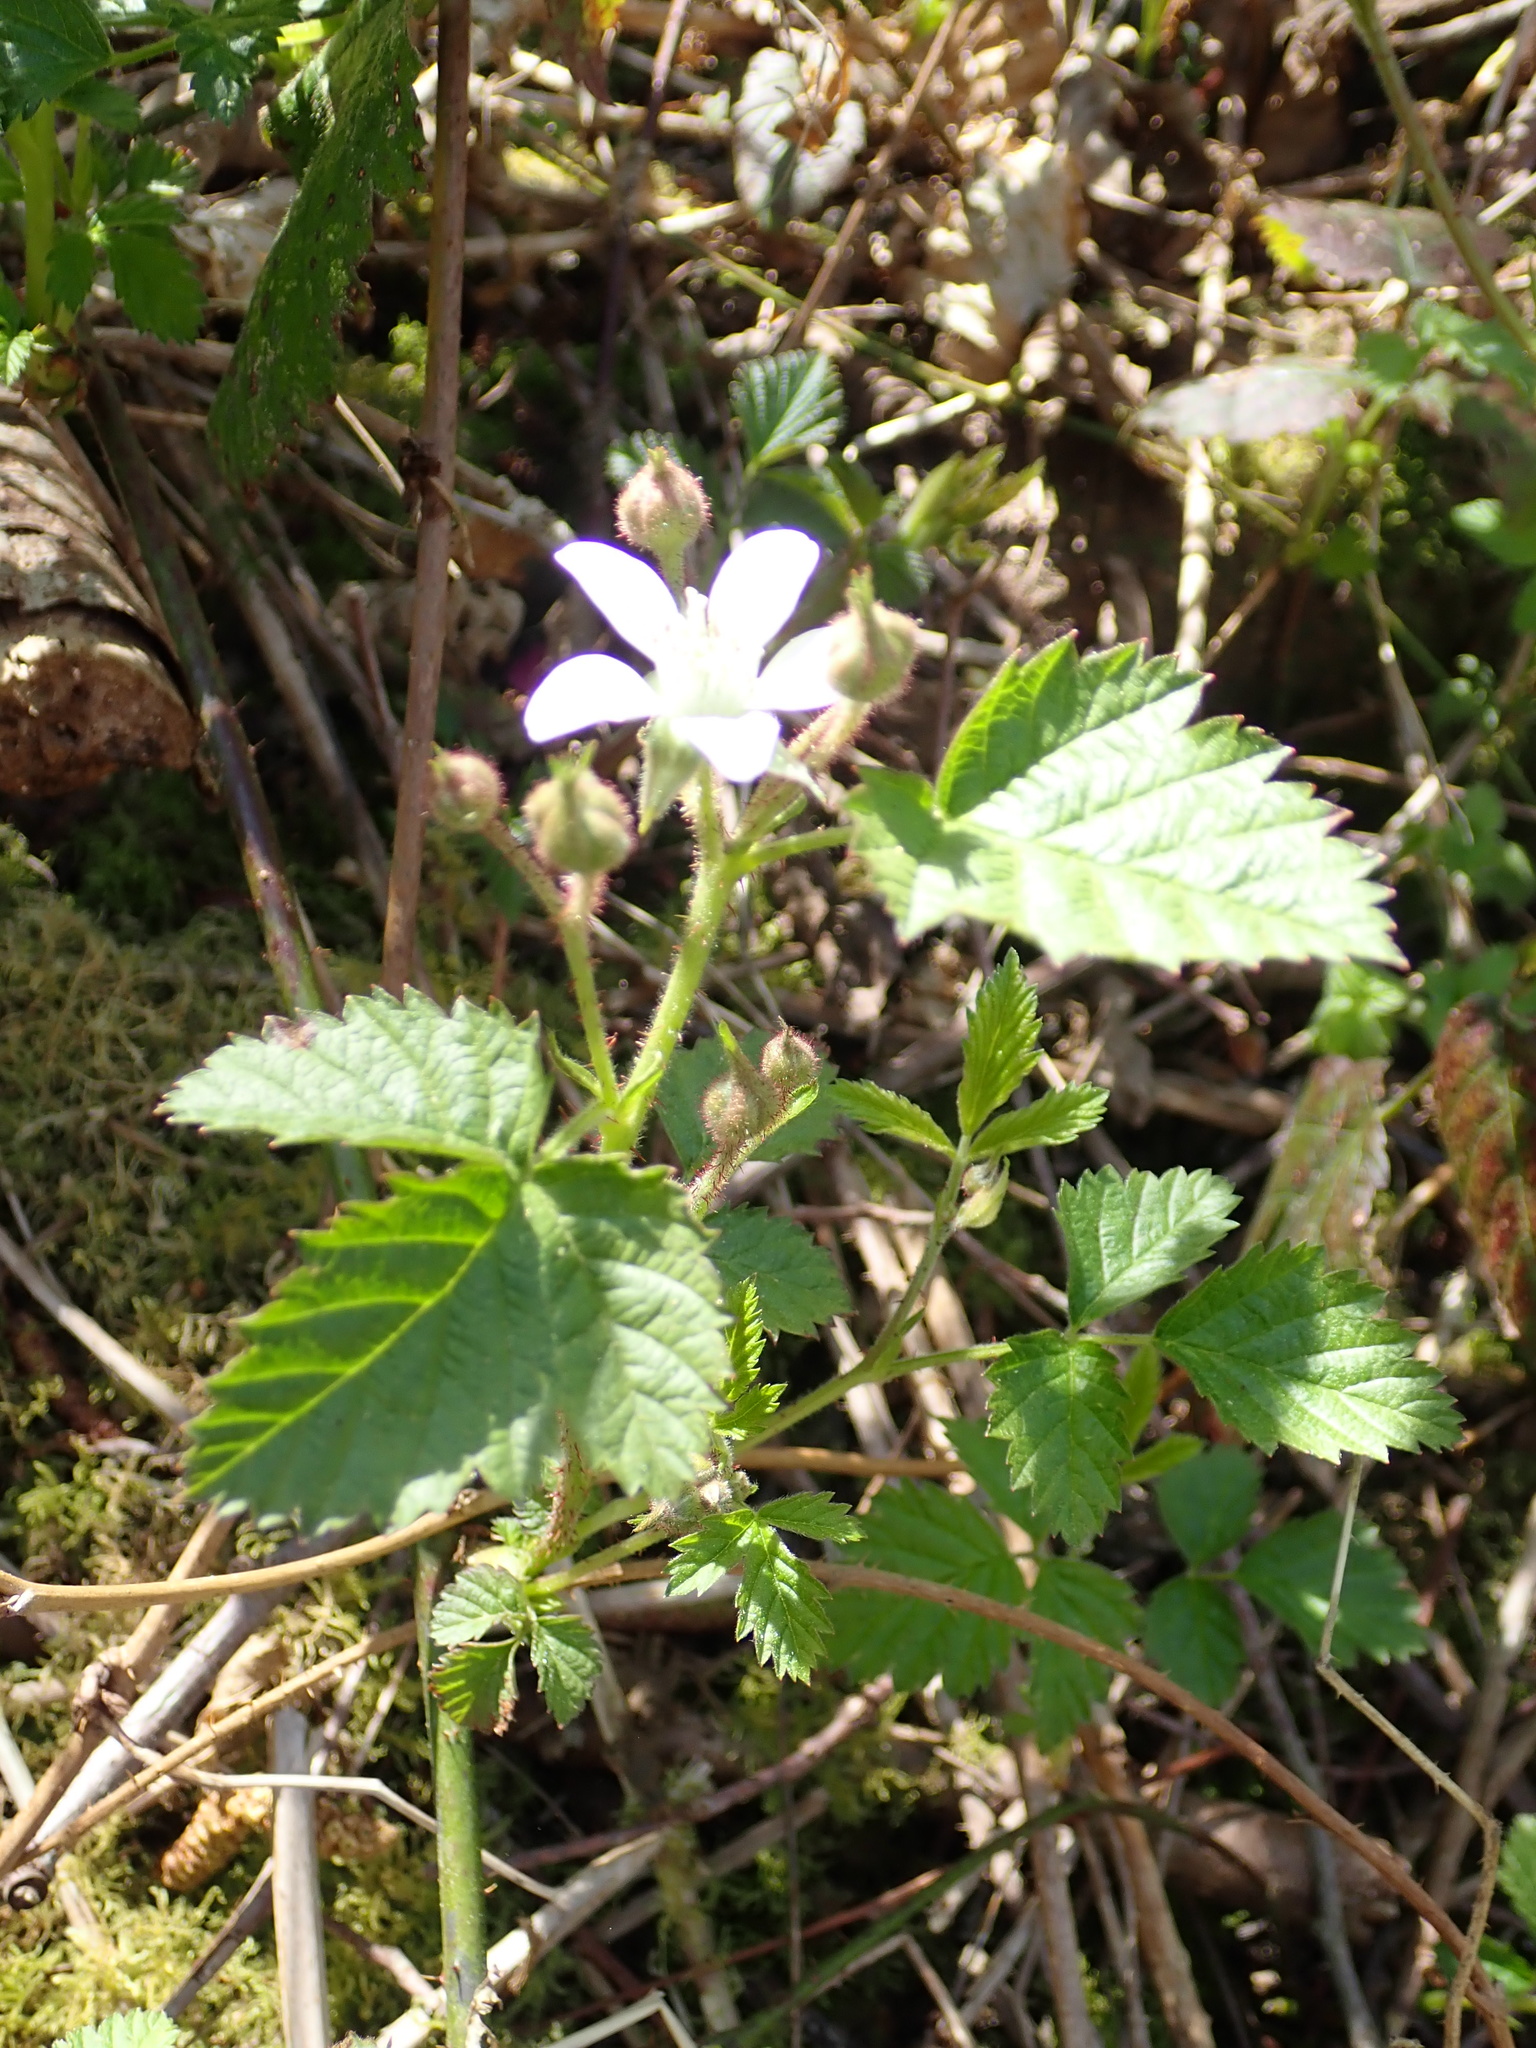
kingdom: Plantae
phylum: Tracheophyta
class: Magnoliopsida
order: Rosales
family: Rosaceae
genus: Rubus
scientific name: Rubus ursinus
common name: Pacific blackberry
